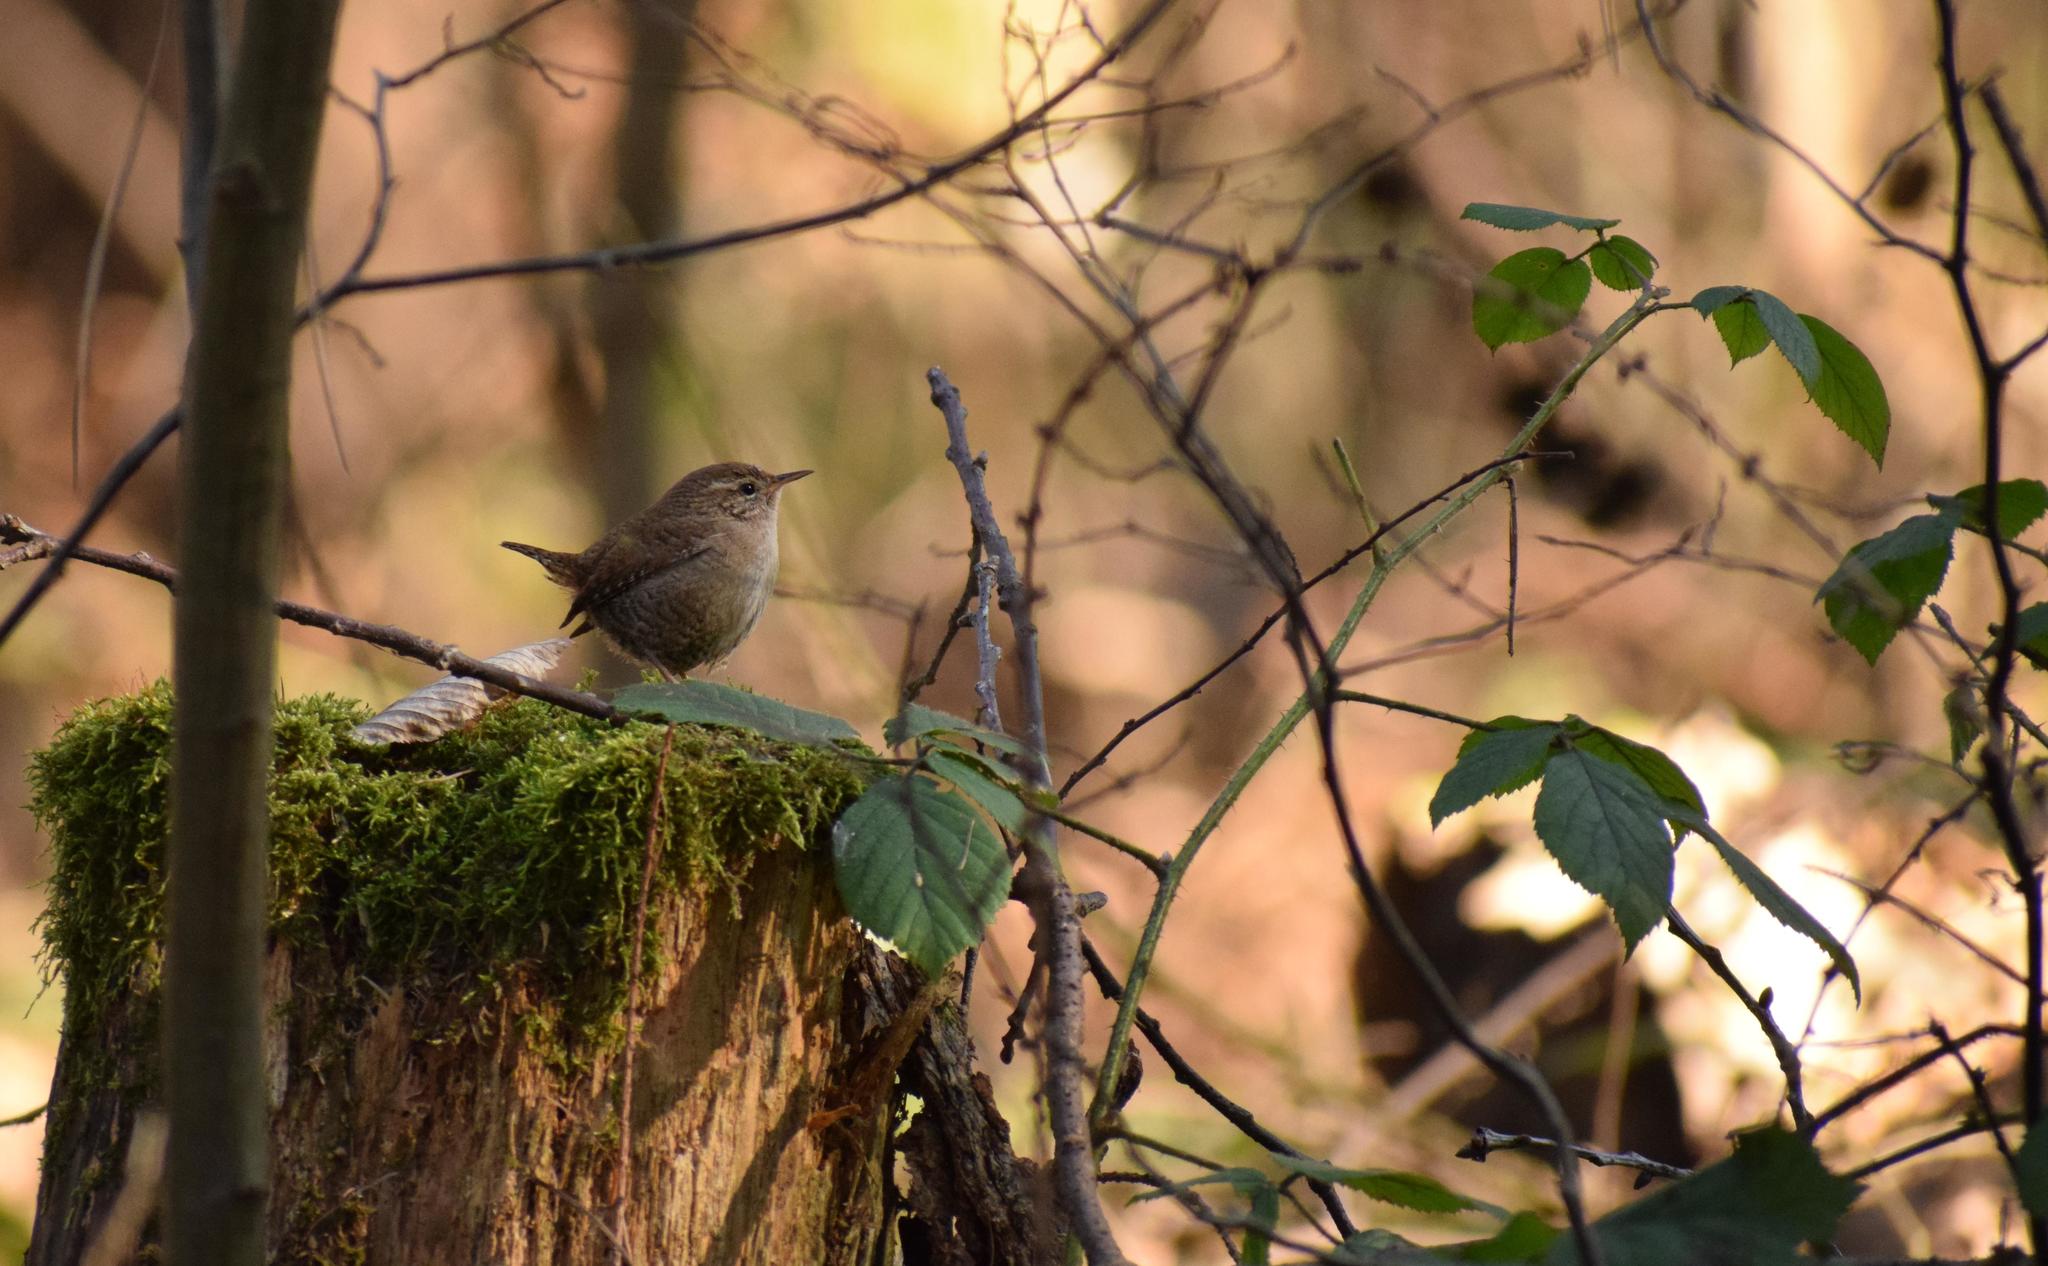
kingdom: Animalia
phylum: Chordata
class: Aves
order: Passeriformes
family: Troglodytidae
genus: Troglodytes
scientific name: Troglodytes troglodytes
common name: Eurasian wren
